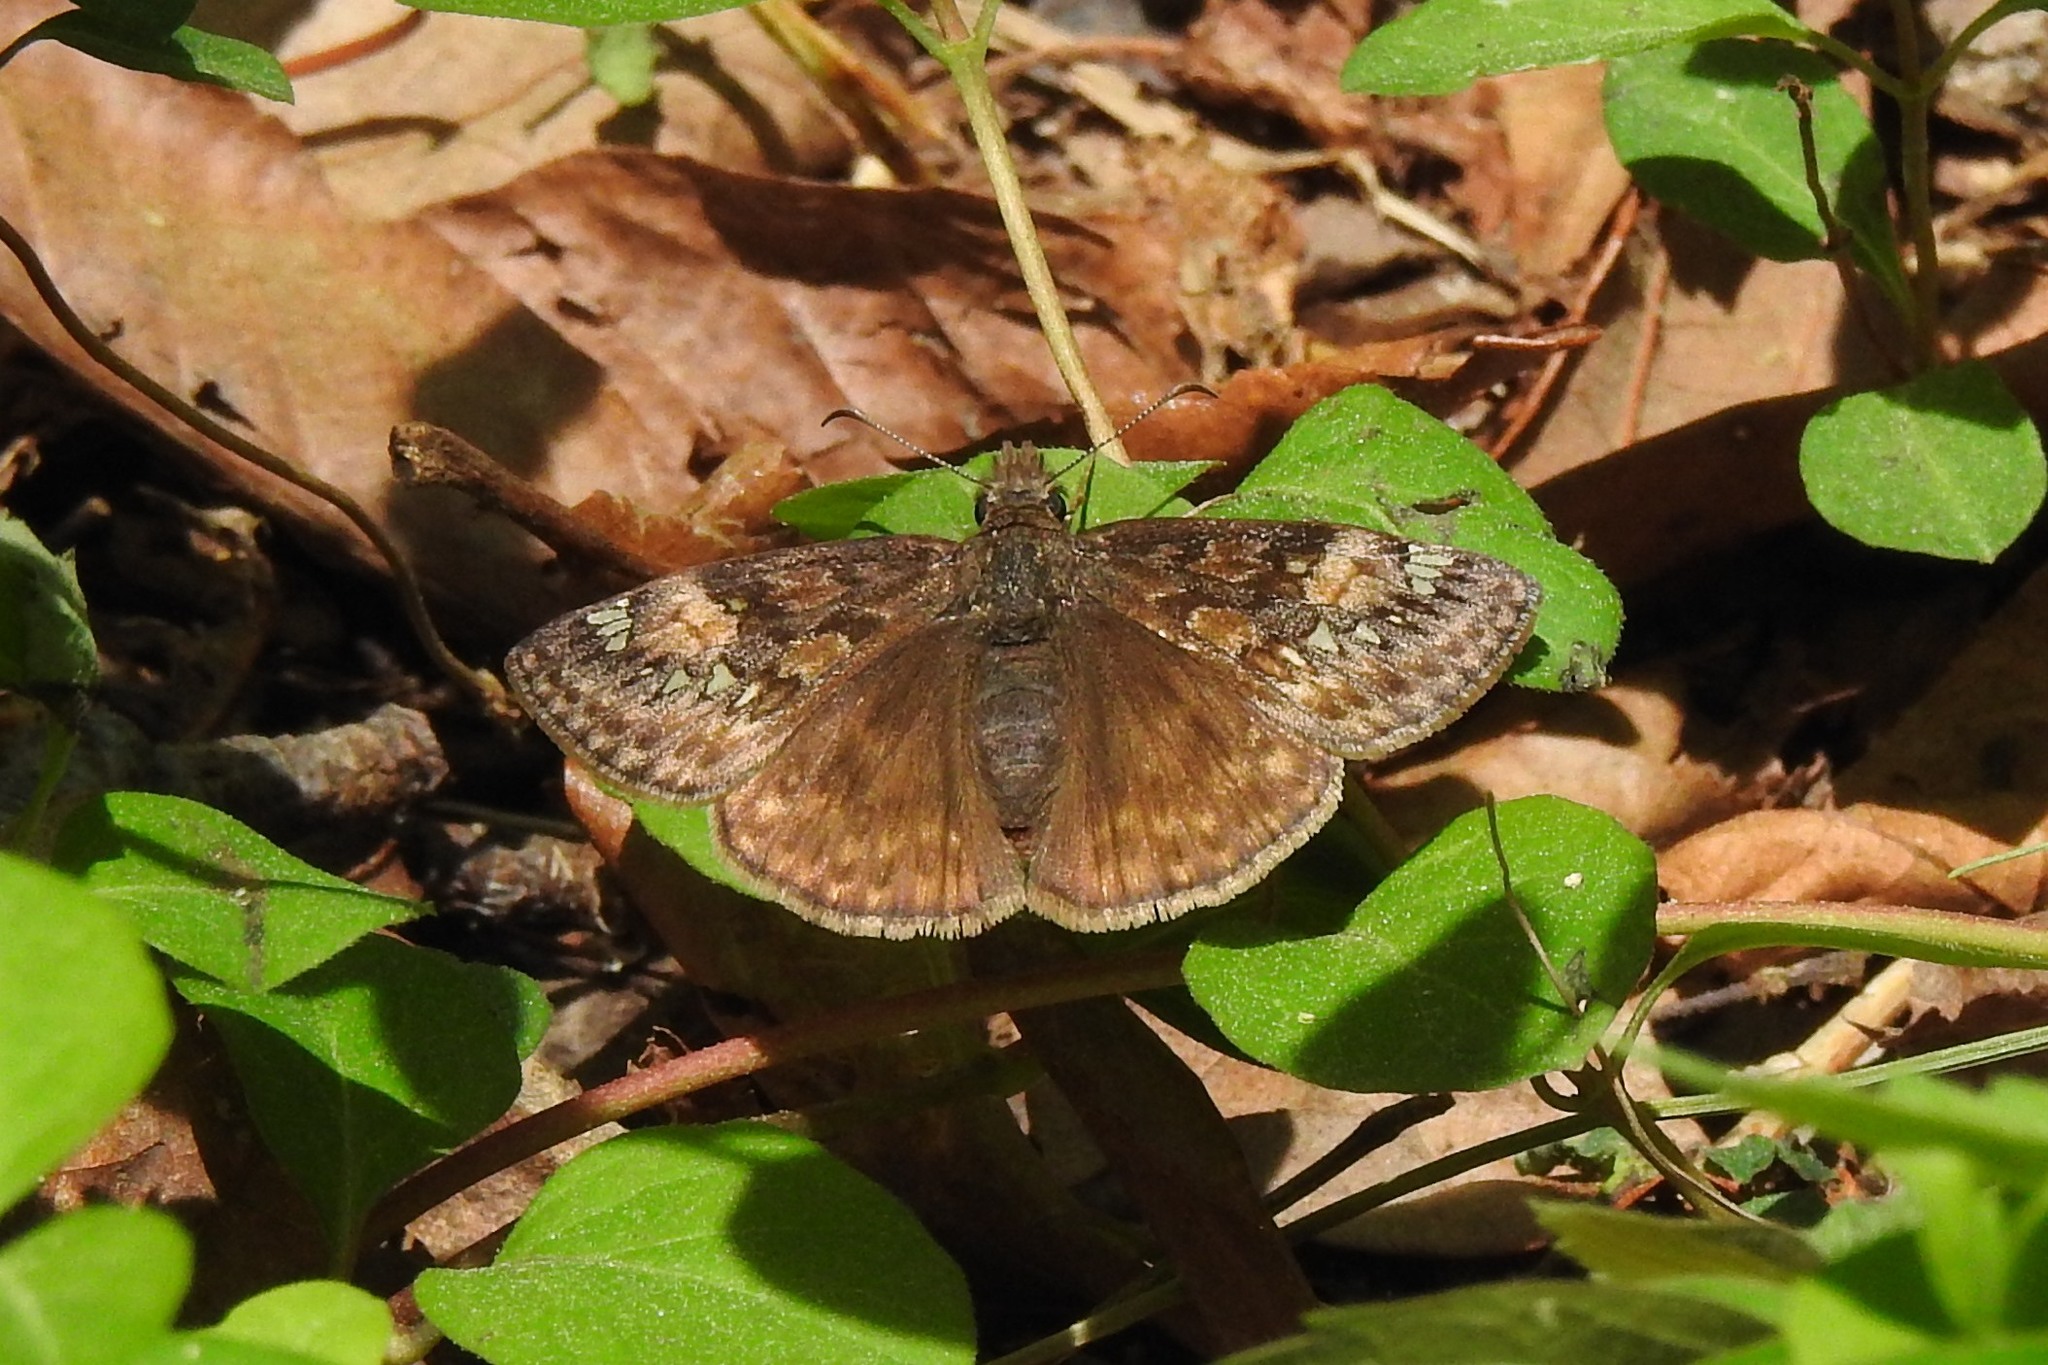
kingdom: Animalia
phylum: Arthropoda
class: Insecta
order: Lepidoptera
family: Hesperiidae
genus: Erynnis
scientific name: Erynnis juvenalis
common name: Juvenal's duskywing
